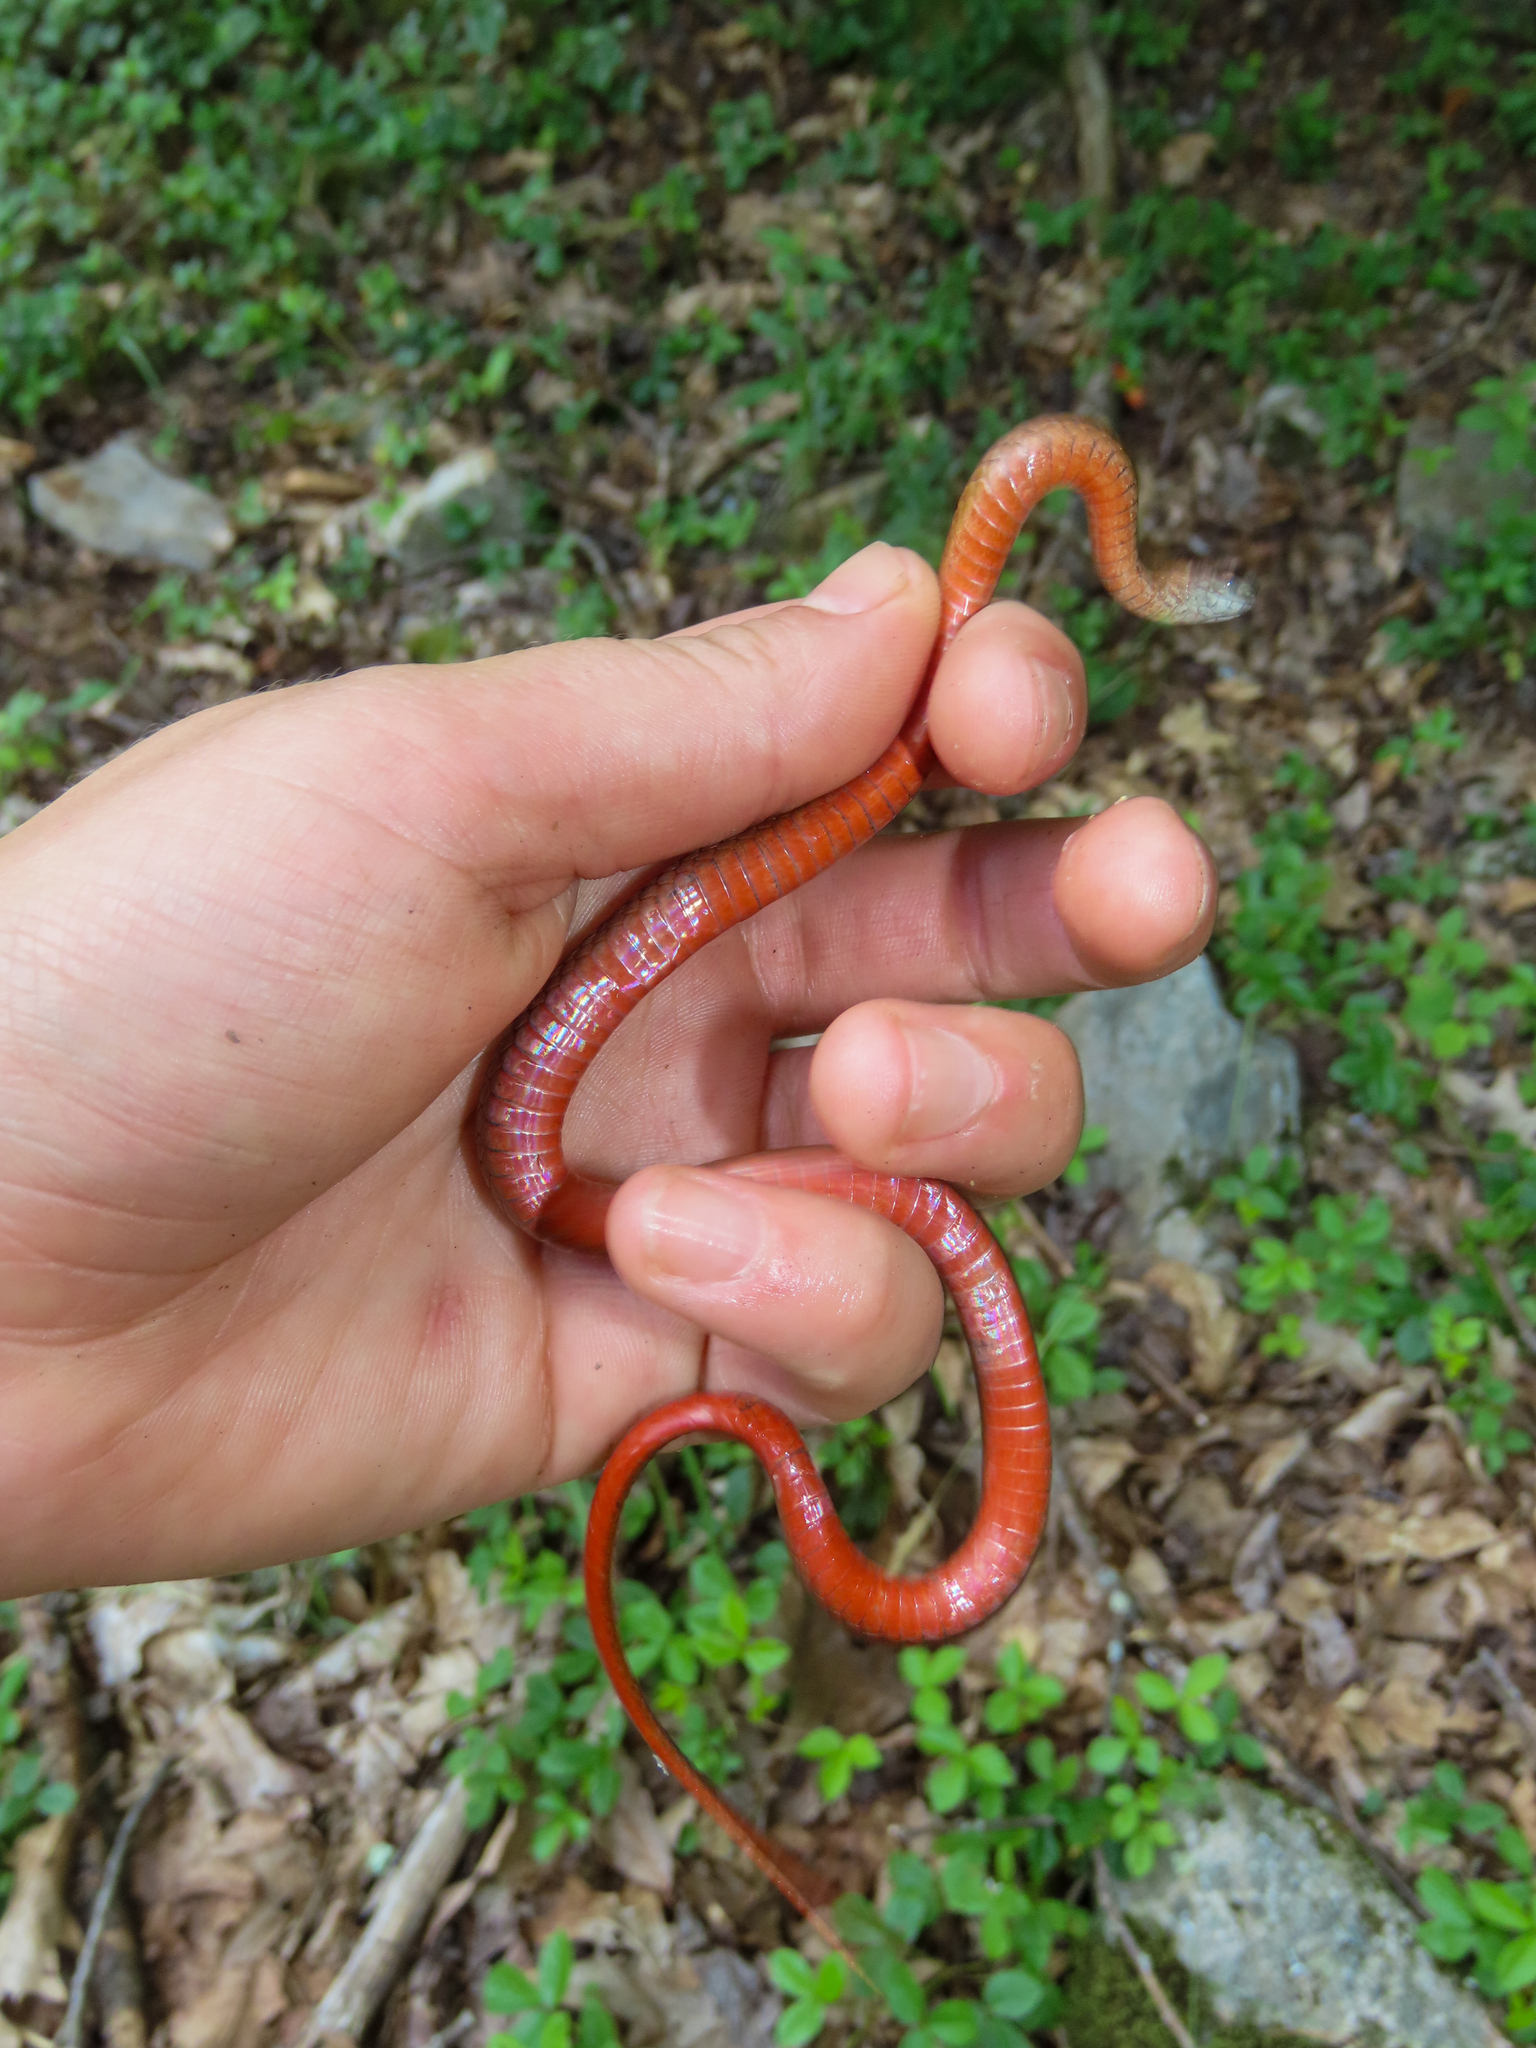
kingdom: Animalia
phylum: Chordata
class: Squamata
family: Colubridae
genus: Storeria
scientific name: Storeria occipitomaculata
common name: Redbelly snake
